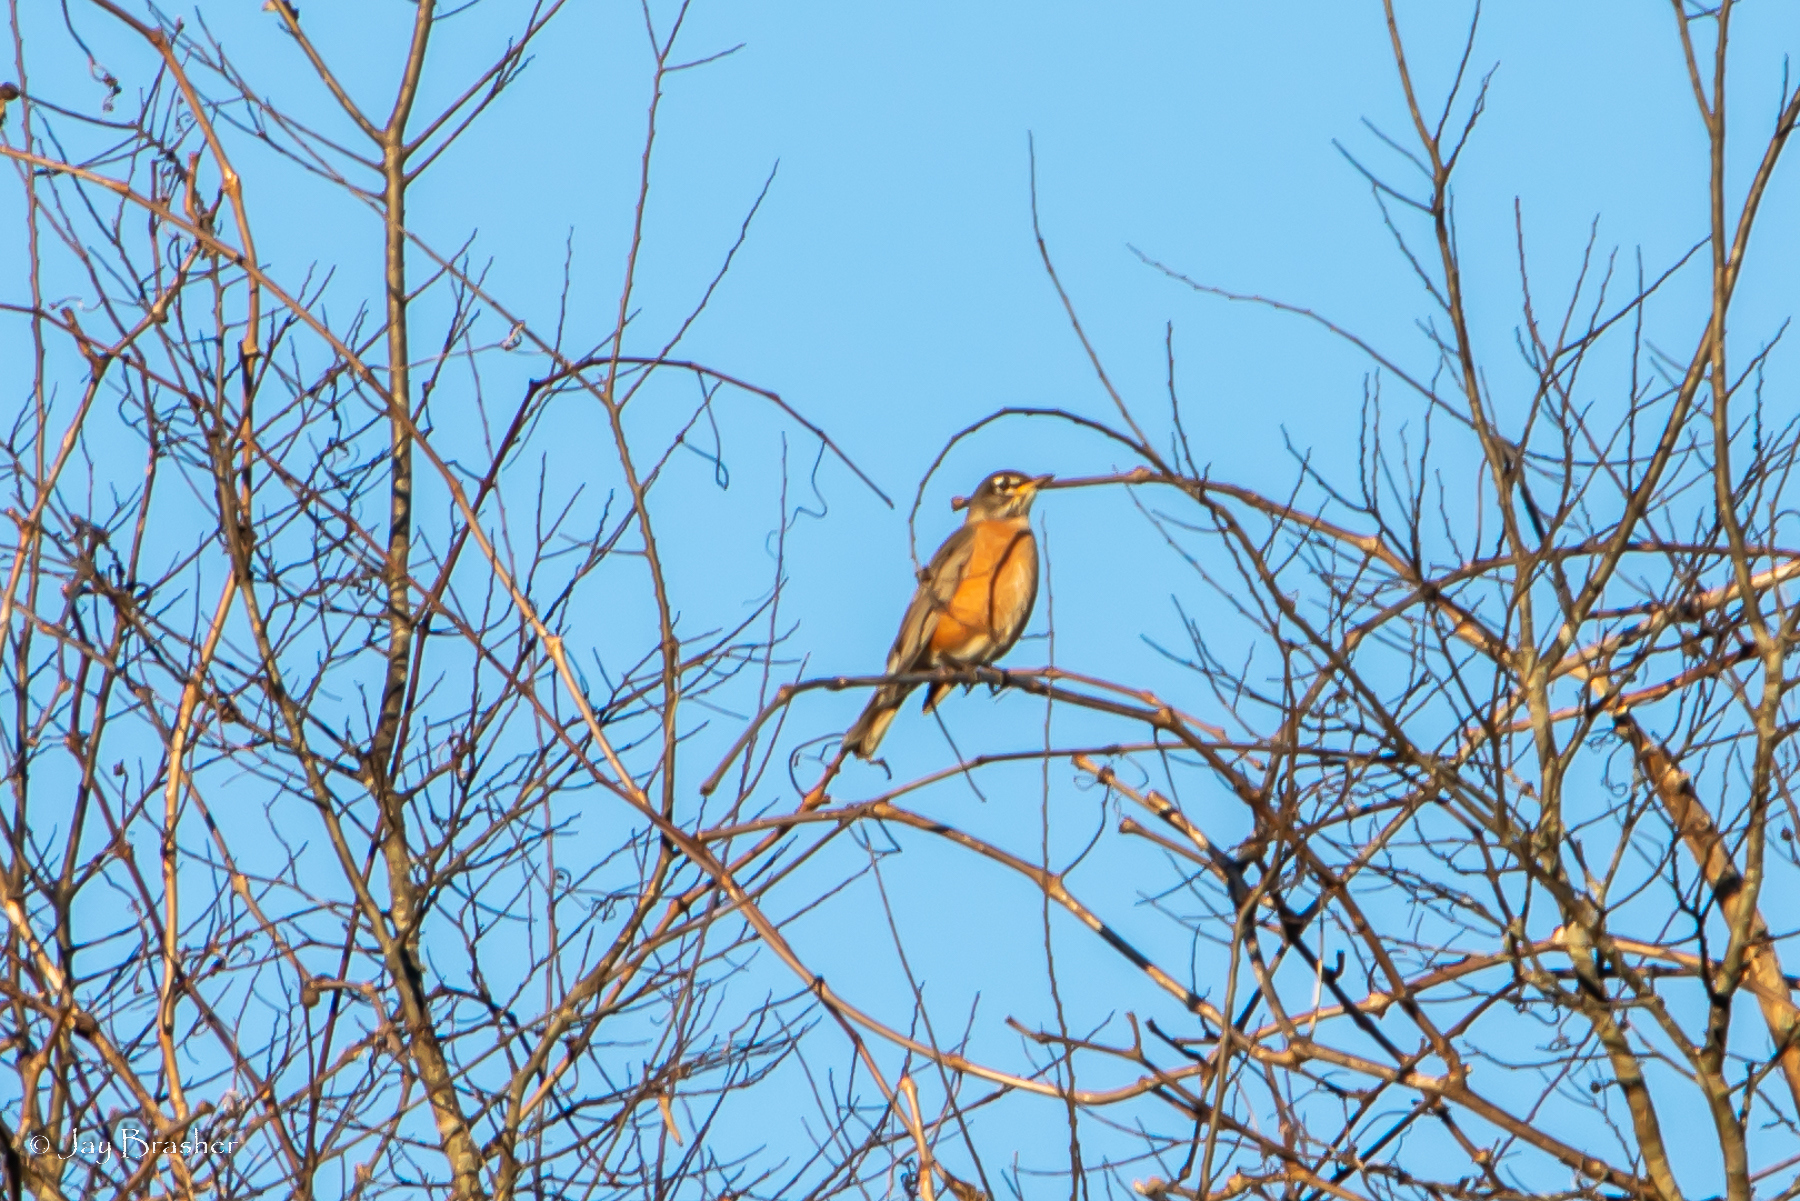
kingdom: Animalia
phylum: Chordata
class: Aves
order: Passeriformes
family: Turdidae
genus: Turdus
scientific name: Turdus migratorius
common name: American robin
